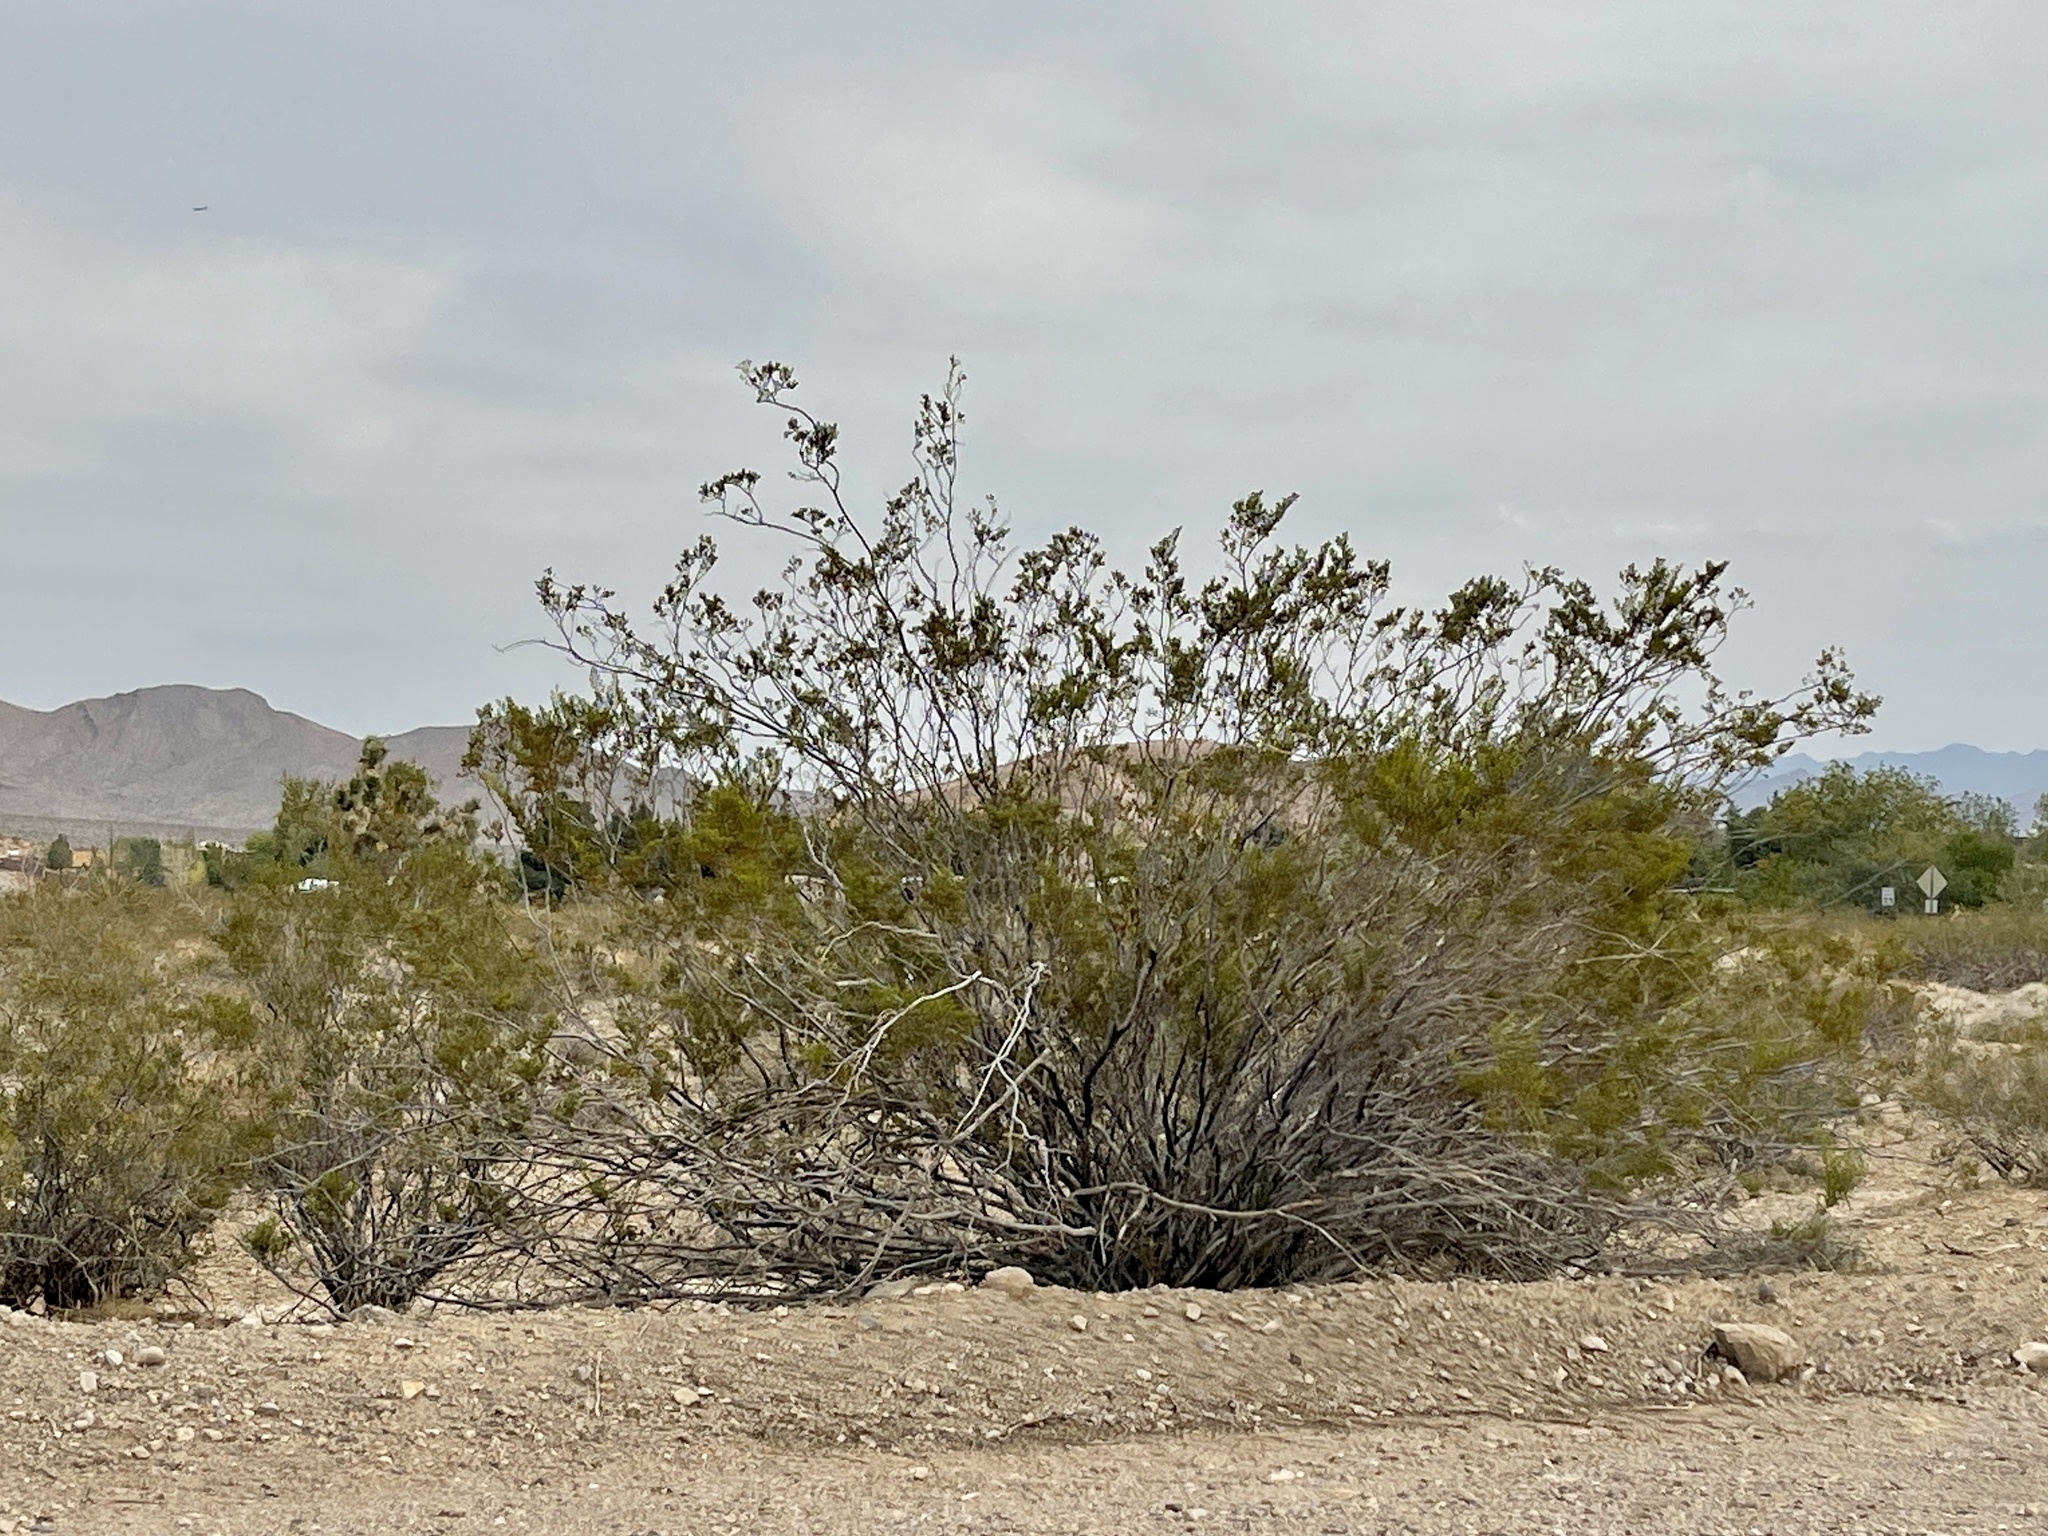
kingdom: Plantae
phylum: Tracheophyta
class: Magnoliopsida
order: Zygophyllales
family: Zygophyllaceae
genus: Larrea
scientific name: Larrea tridentata
